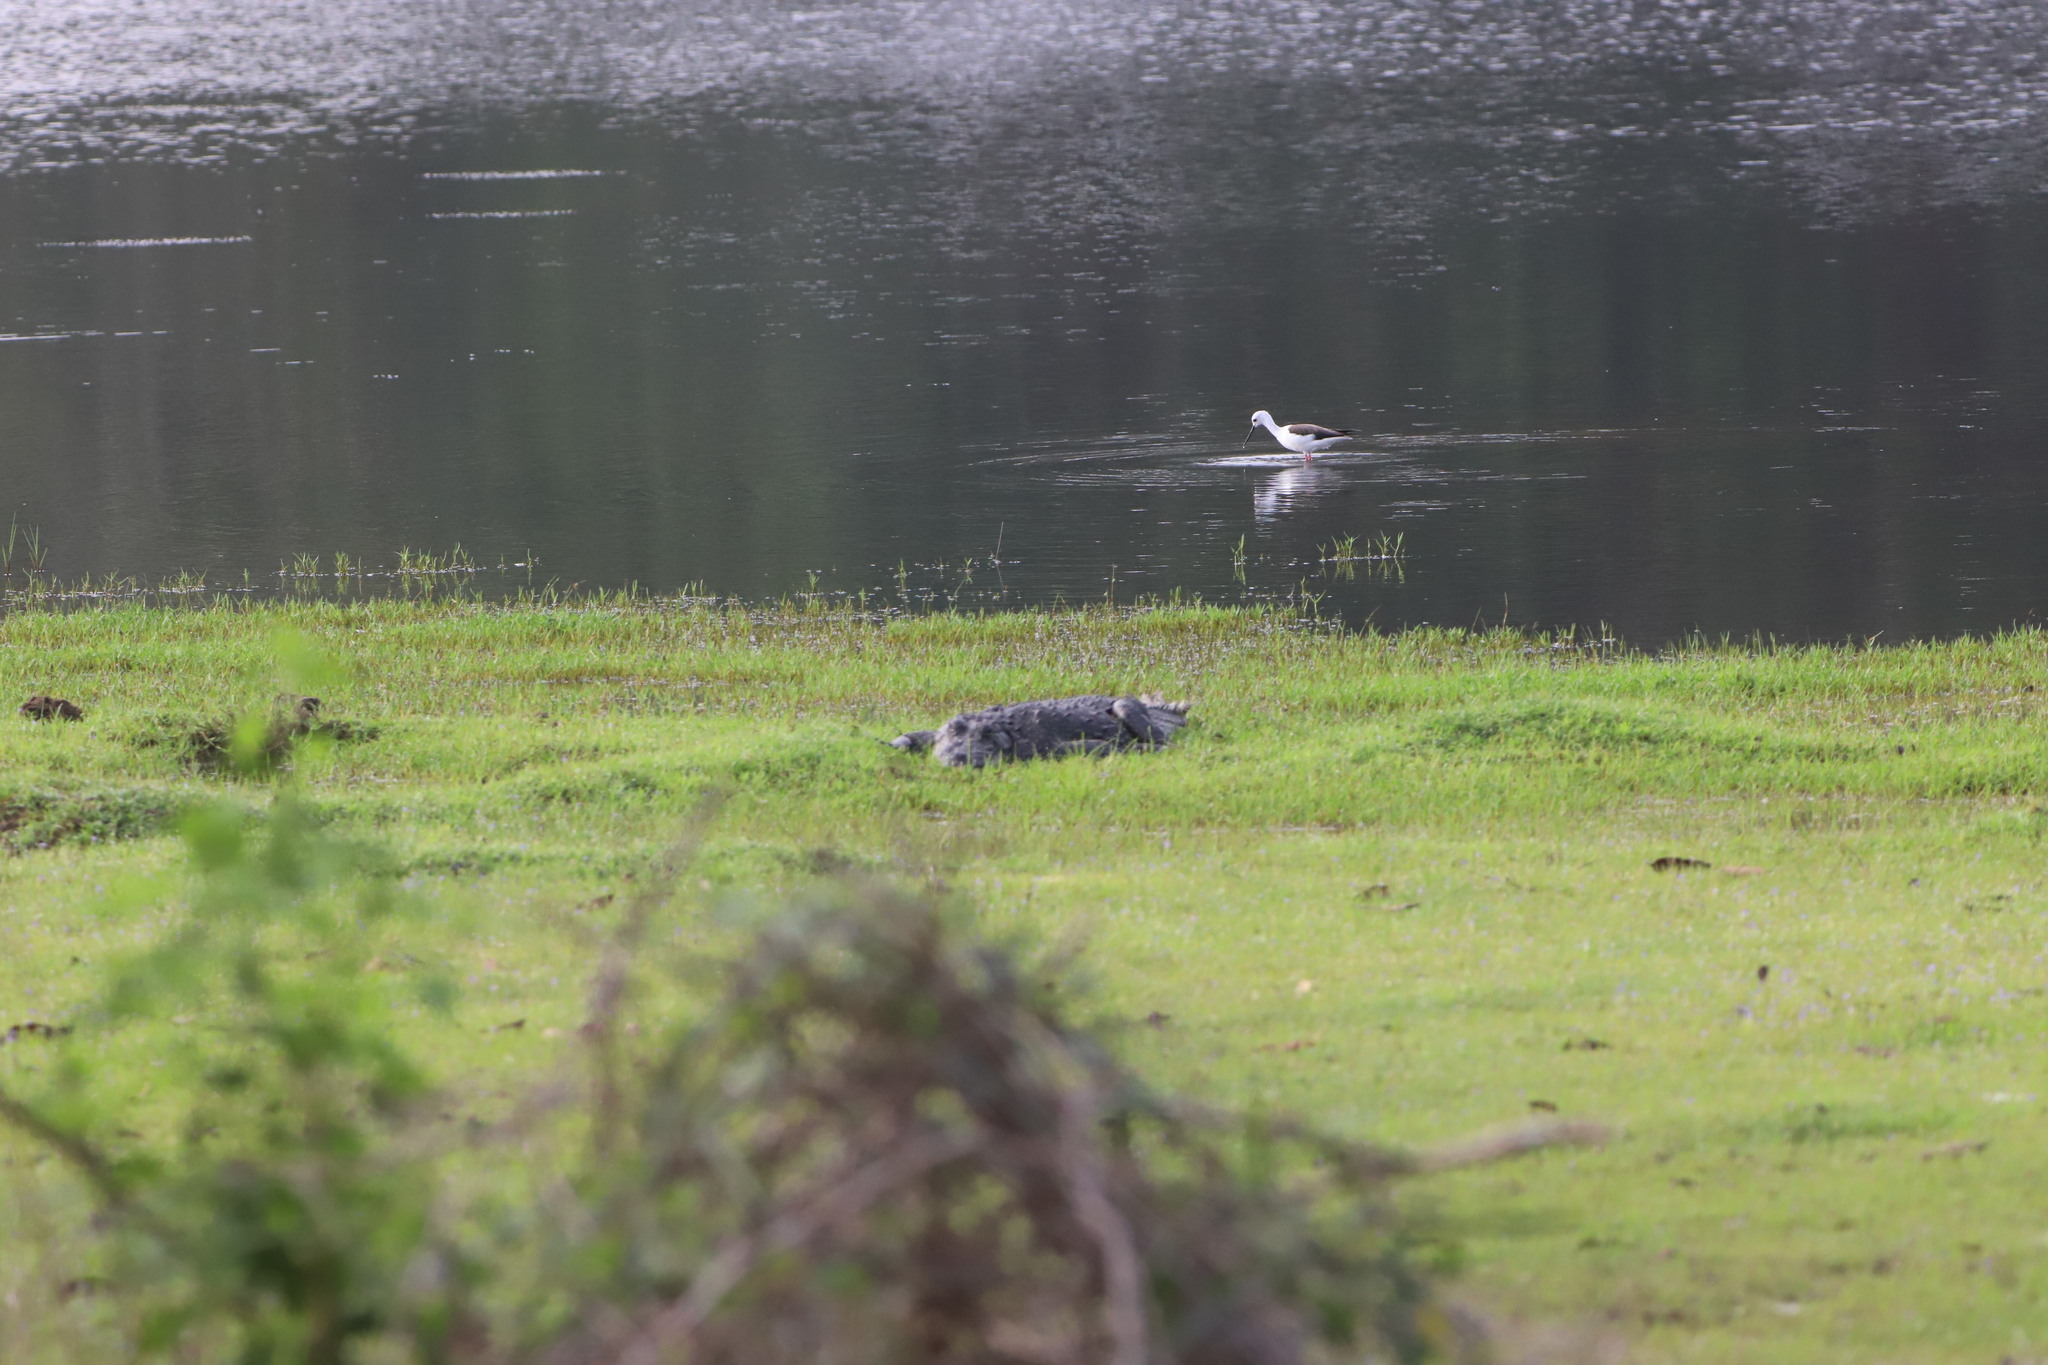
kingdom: Animalia
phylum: Chordata
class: Crocodylia
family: Crocodylidae
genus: Crocodylus
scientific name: Crocodylus palustris
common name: Mugger crocodile
